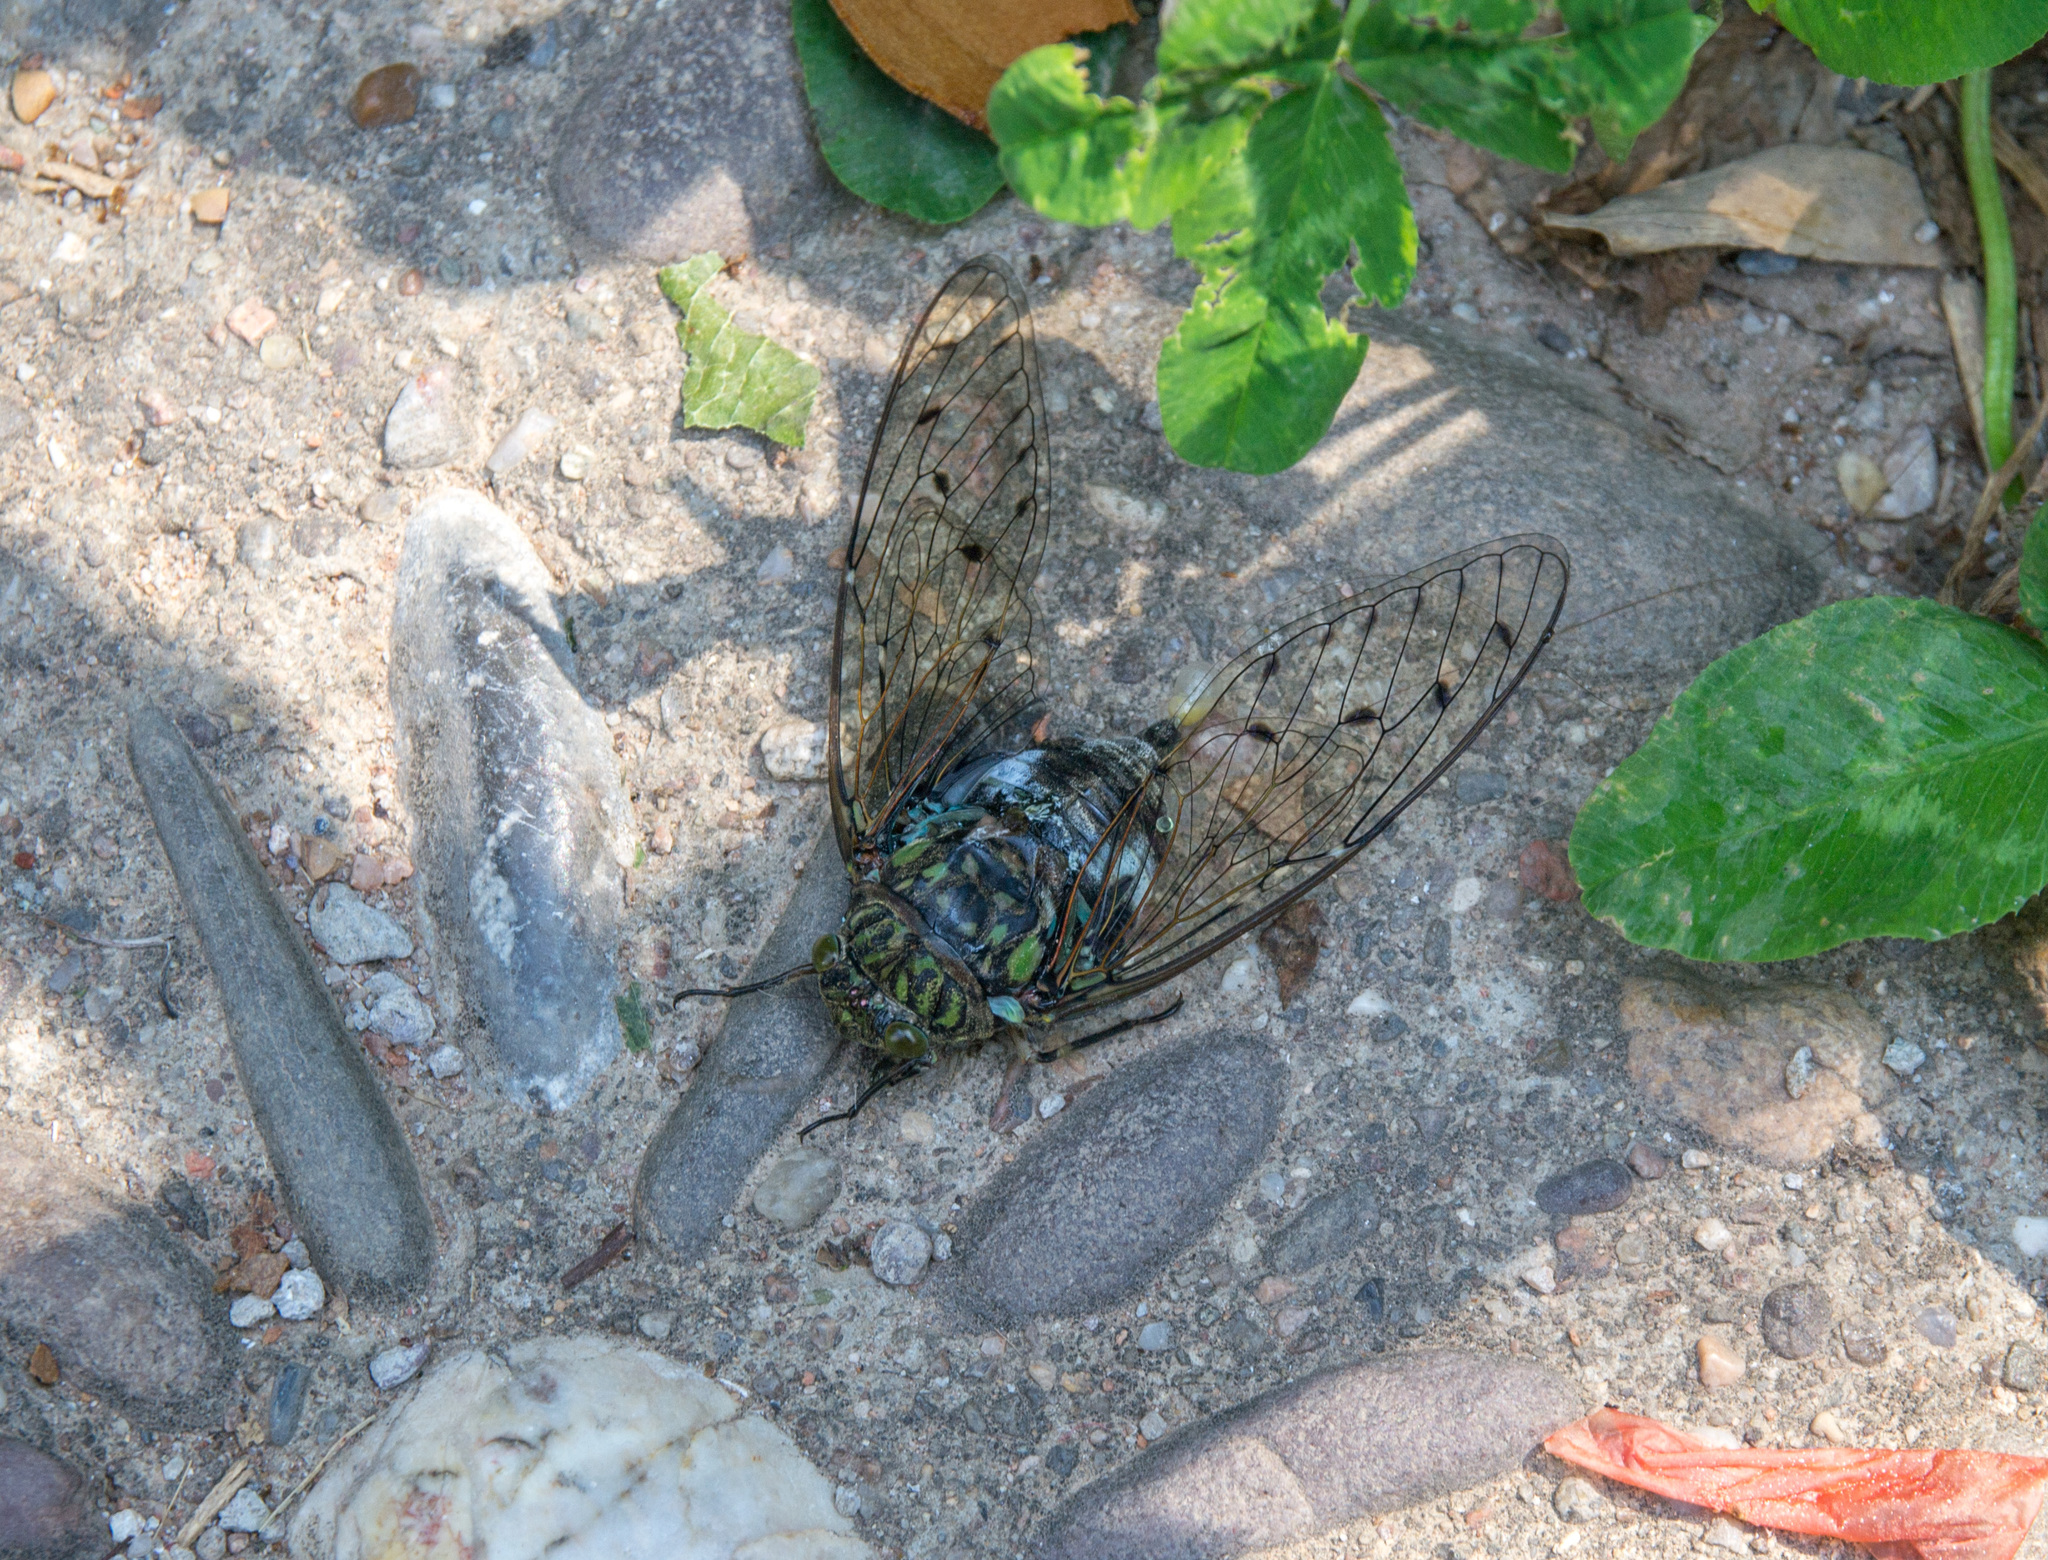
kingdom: Animalia
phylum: Arthropoda
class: Insecta
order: Hemiptera
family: Cicadidae
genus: Hyalessa
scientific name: Hyalessa maculaticollis
